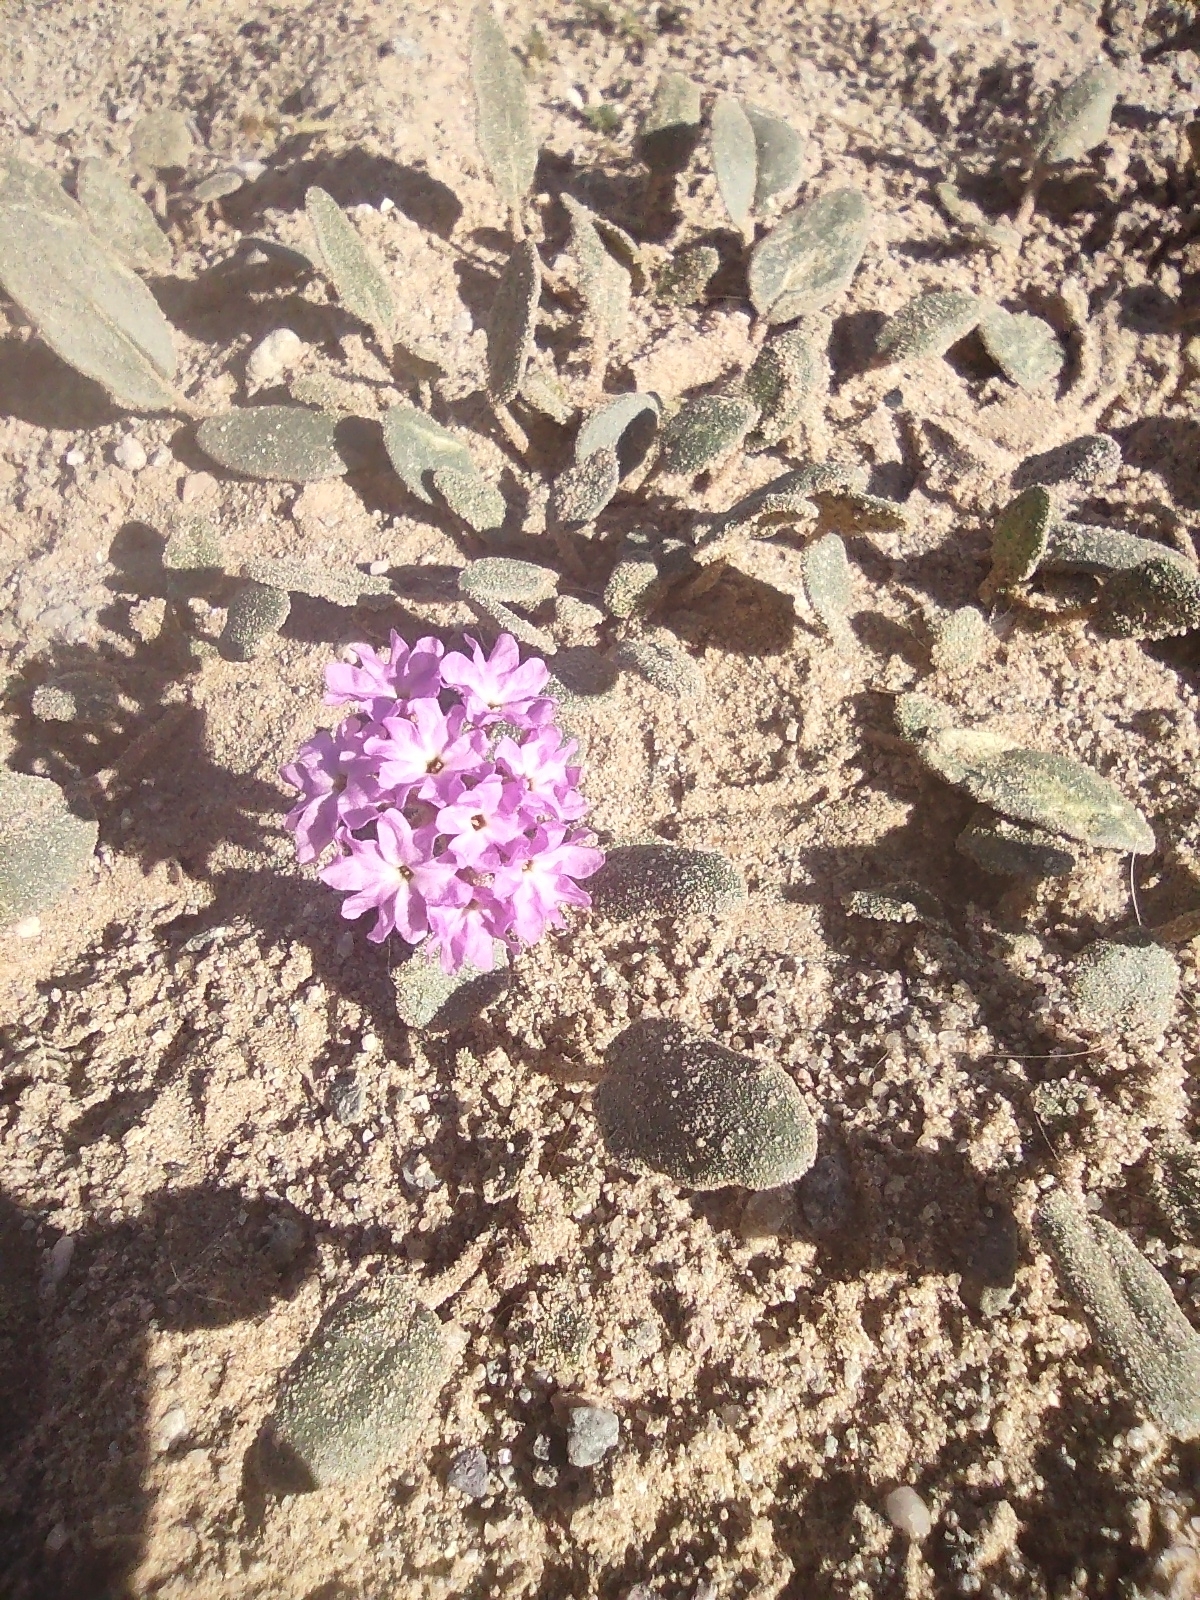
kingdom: Plantae
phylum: Tracheophyta
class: Magnoliopsida
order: Caryophyllales
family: Nyctaginaceae
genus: Abronia
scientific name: Abronia villosa
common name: Desert sand-verbena
